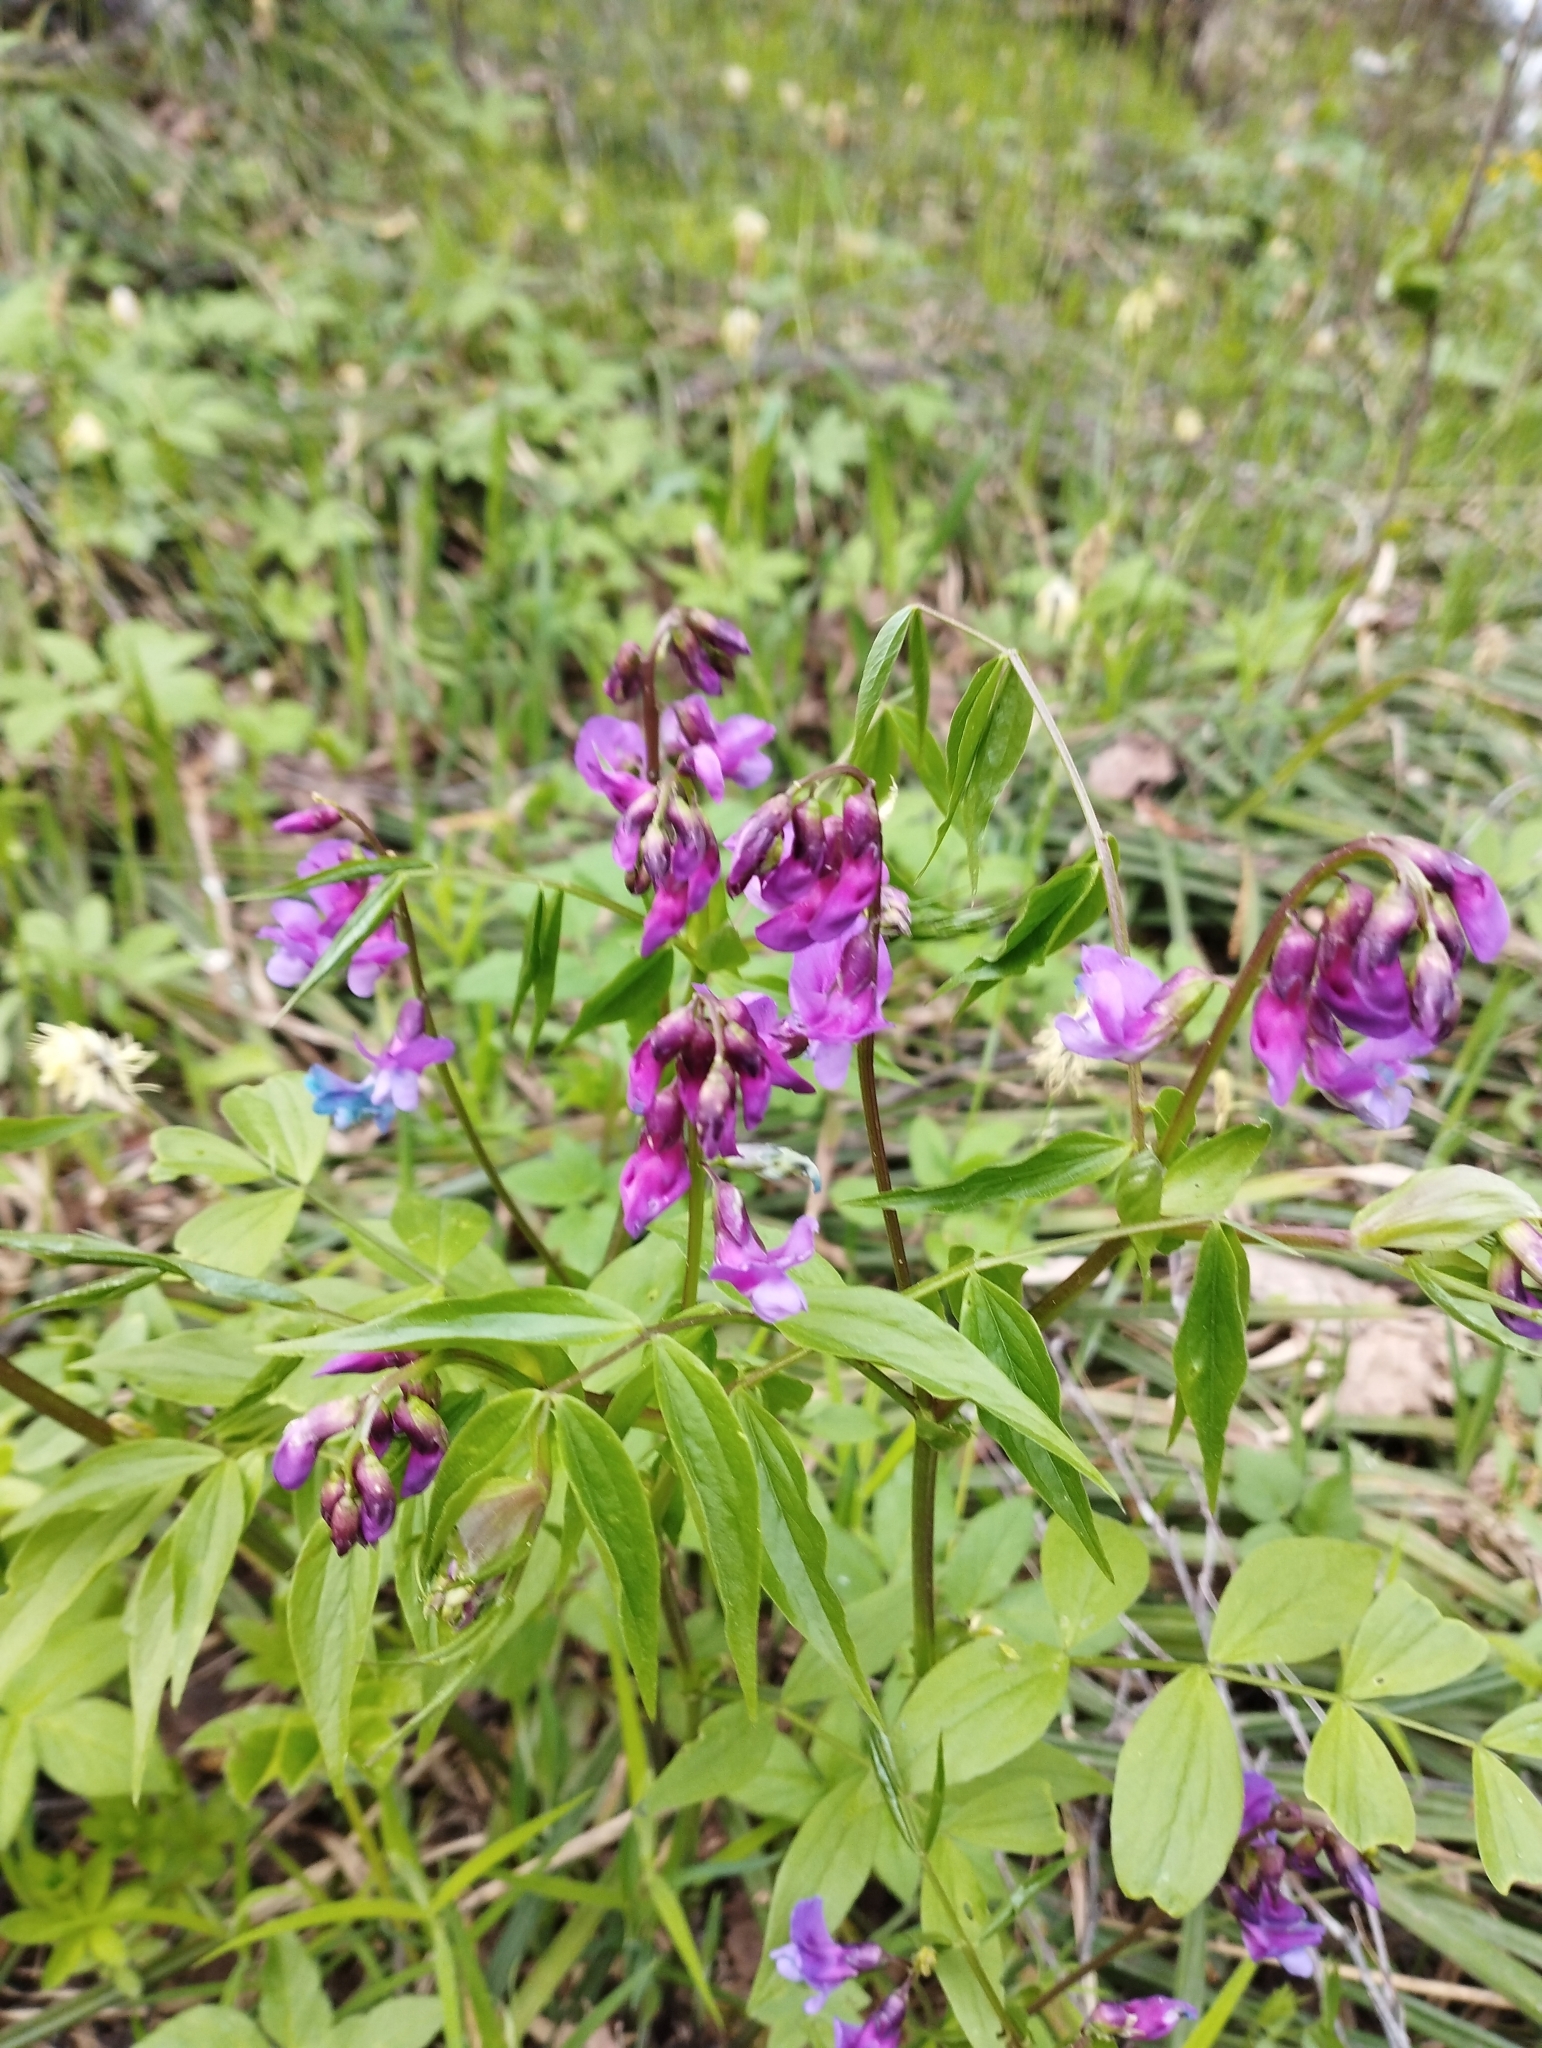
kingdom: Plantae
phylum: Tracheophyta
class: Magnoliopsida
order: Fabales
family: Fabaceae
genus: Lathyrus
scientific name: Lathyrus vernus
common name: Spring pea
